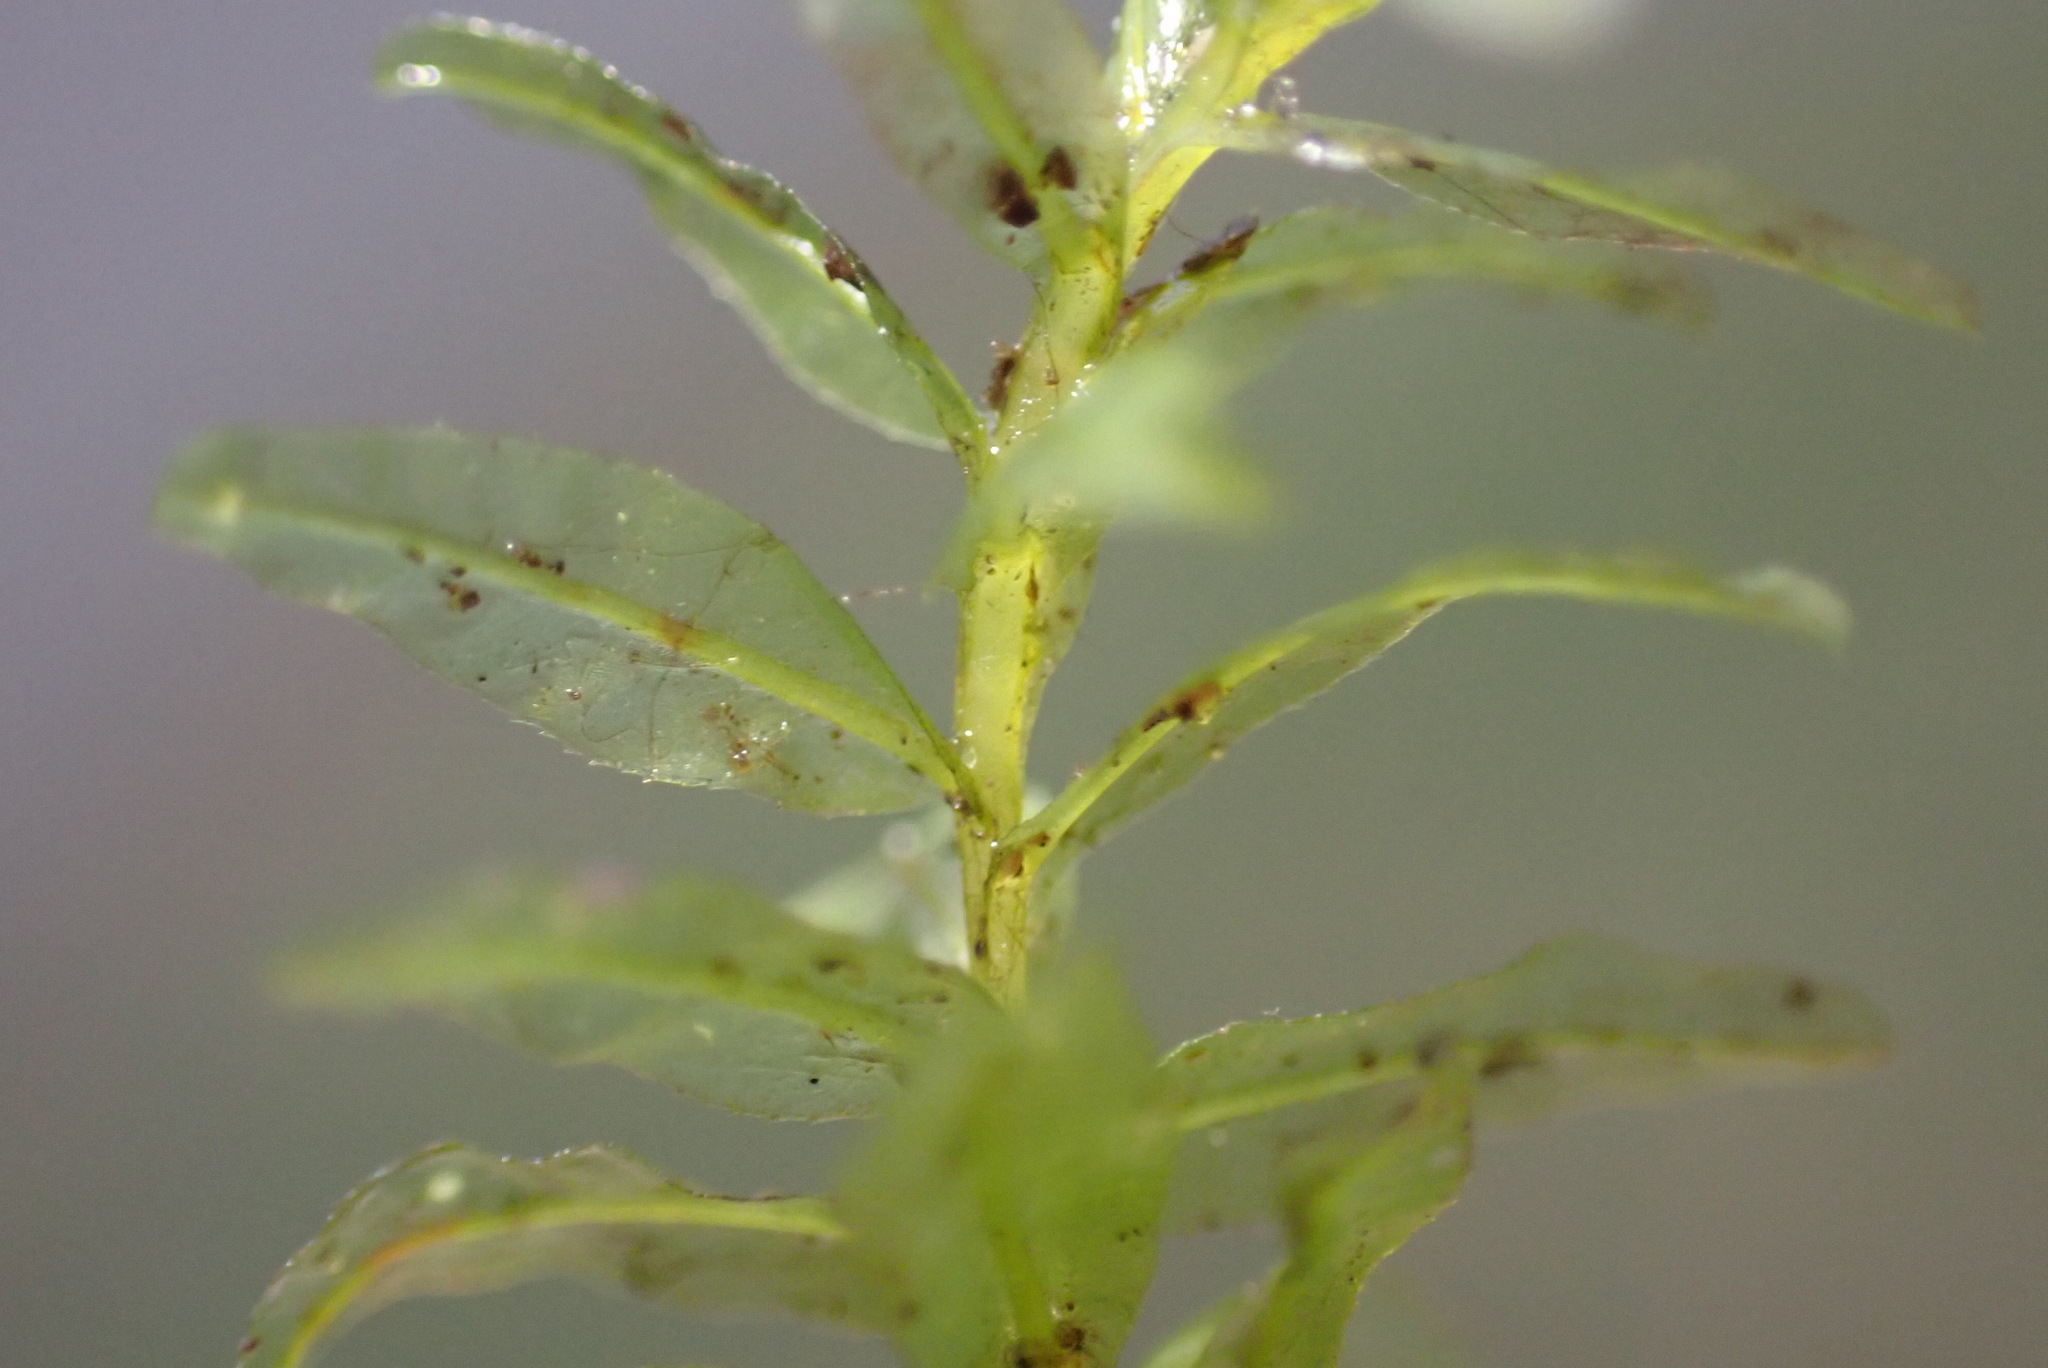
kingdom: Plantae
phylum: Bryophyta
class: Bryopsida
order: Bryales
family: Mniaceae
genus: Plagiomnium
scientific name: Plagiomnium undulatum
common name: Hart's-tongue thyme-moss
